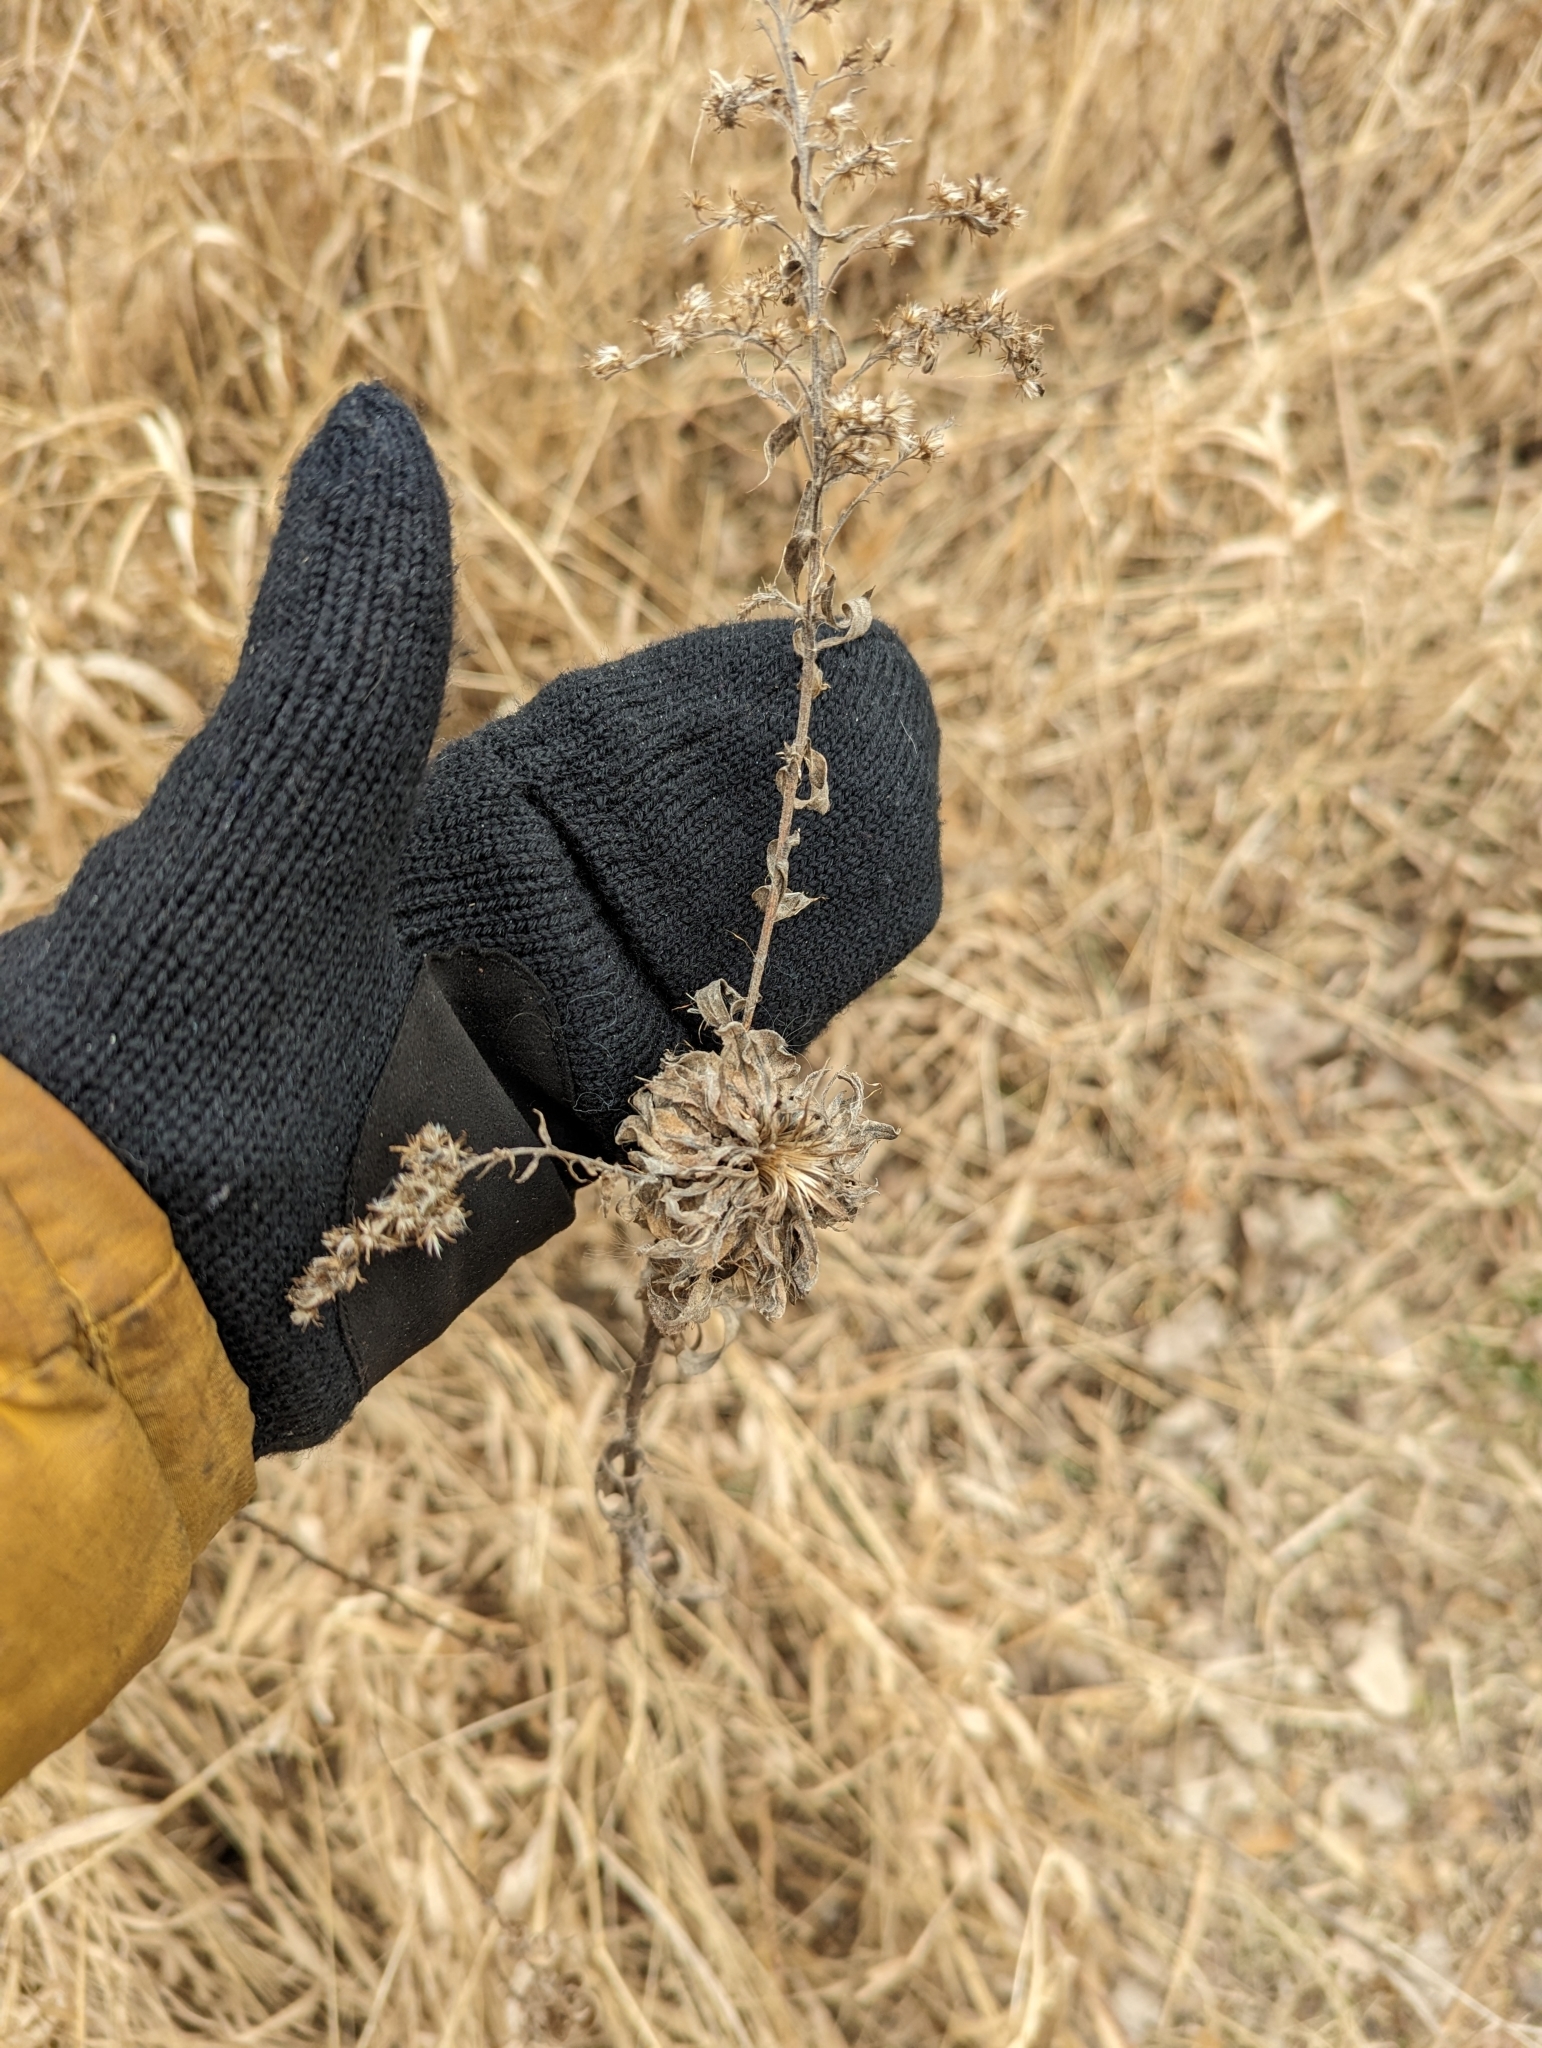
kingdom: Animalia
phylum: Arthropoda
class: Insecta
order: Diptera
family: Cecidomyiidae
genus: Rhopalomyia
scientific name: Rhopalomyia solidaginis
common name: Goldenrod bunch gall midge
